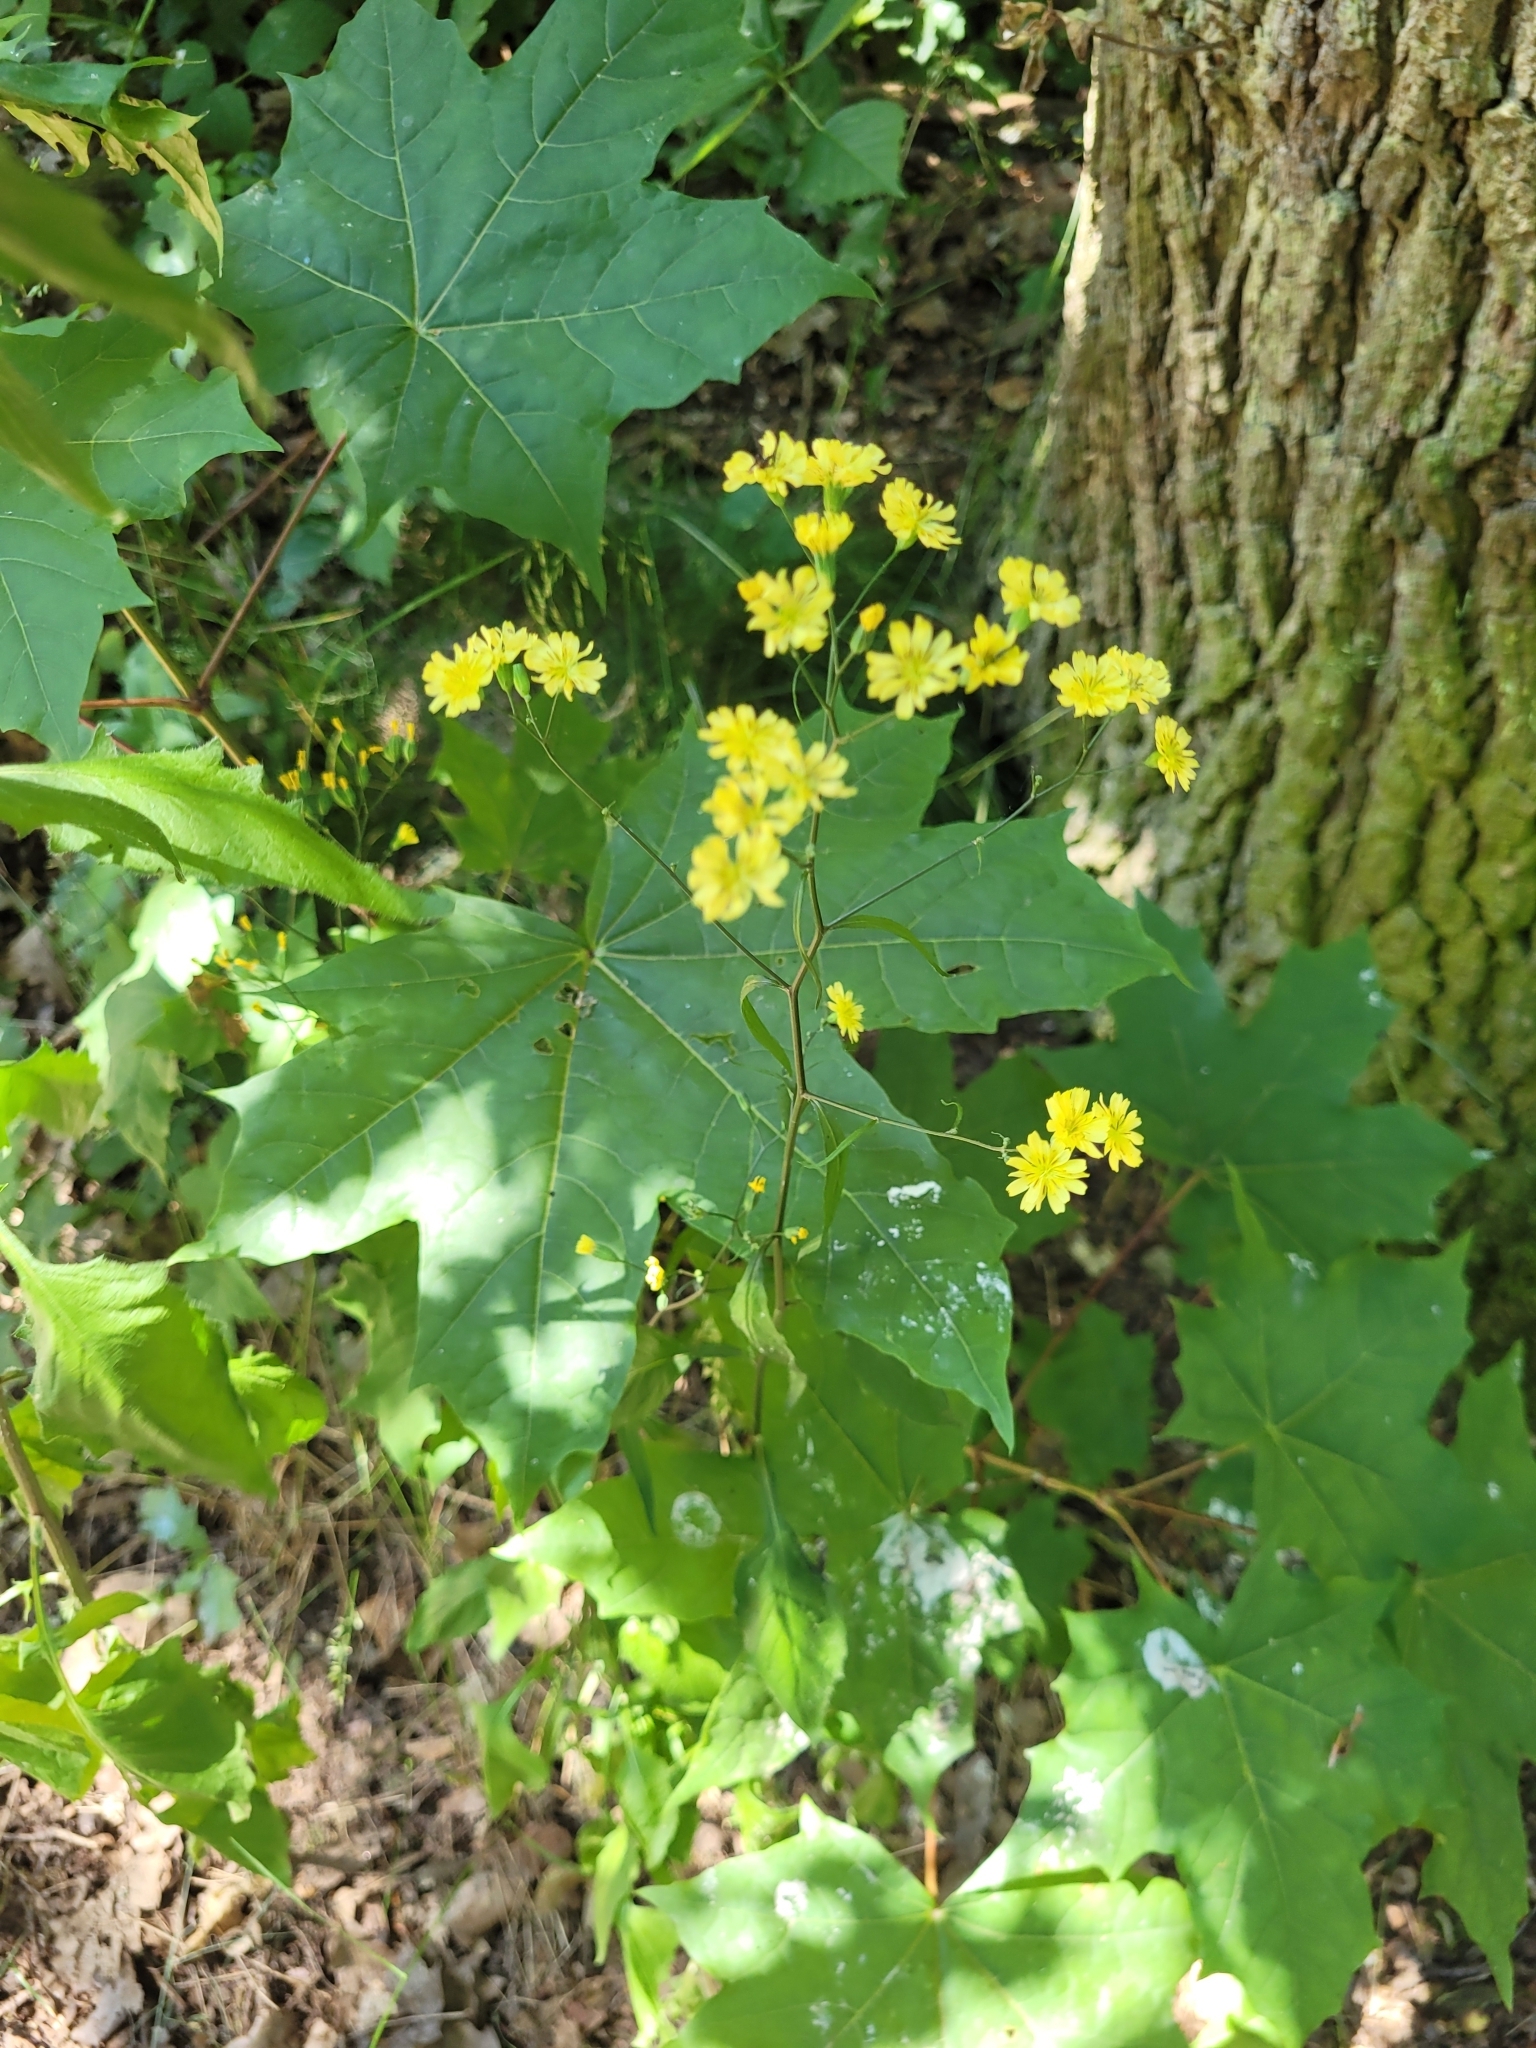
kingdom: Plantae
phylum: Tracheophyta
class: Magnoliopsida
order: Asterales
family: Asteraceae
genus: Lapsana
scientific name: Lapsana communis
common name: Nipplewort
